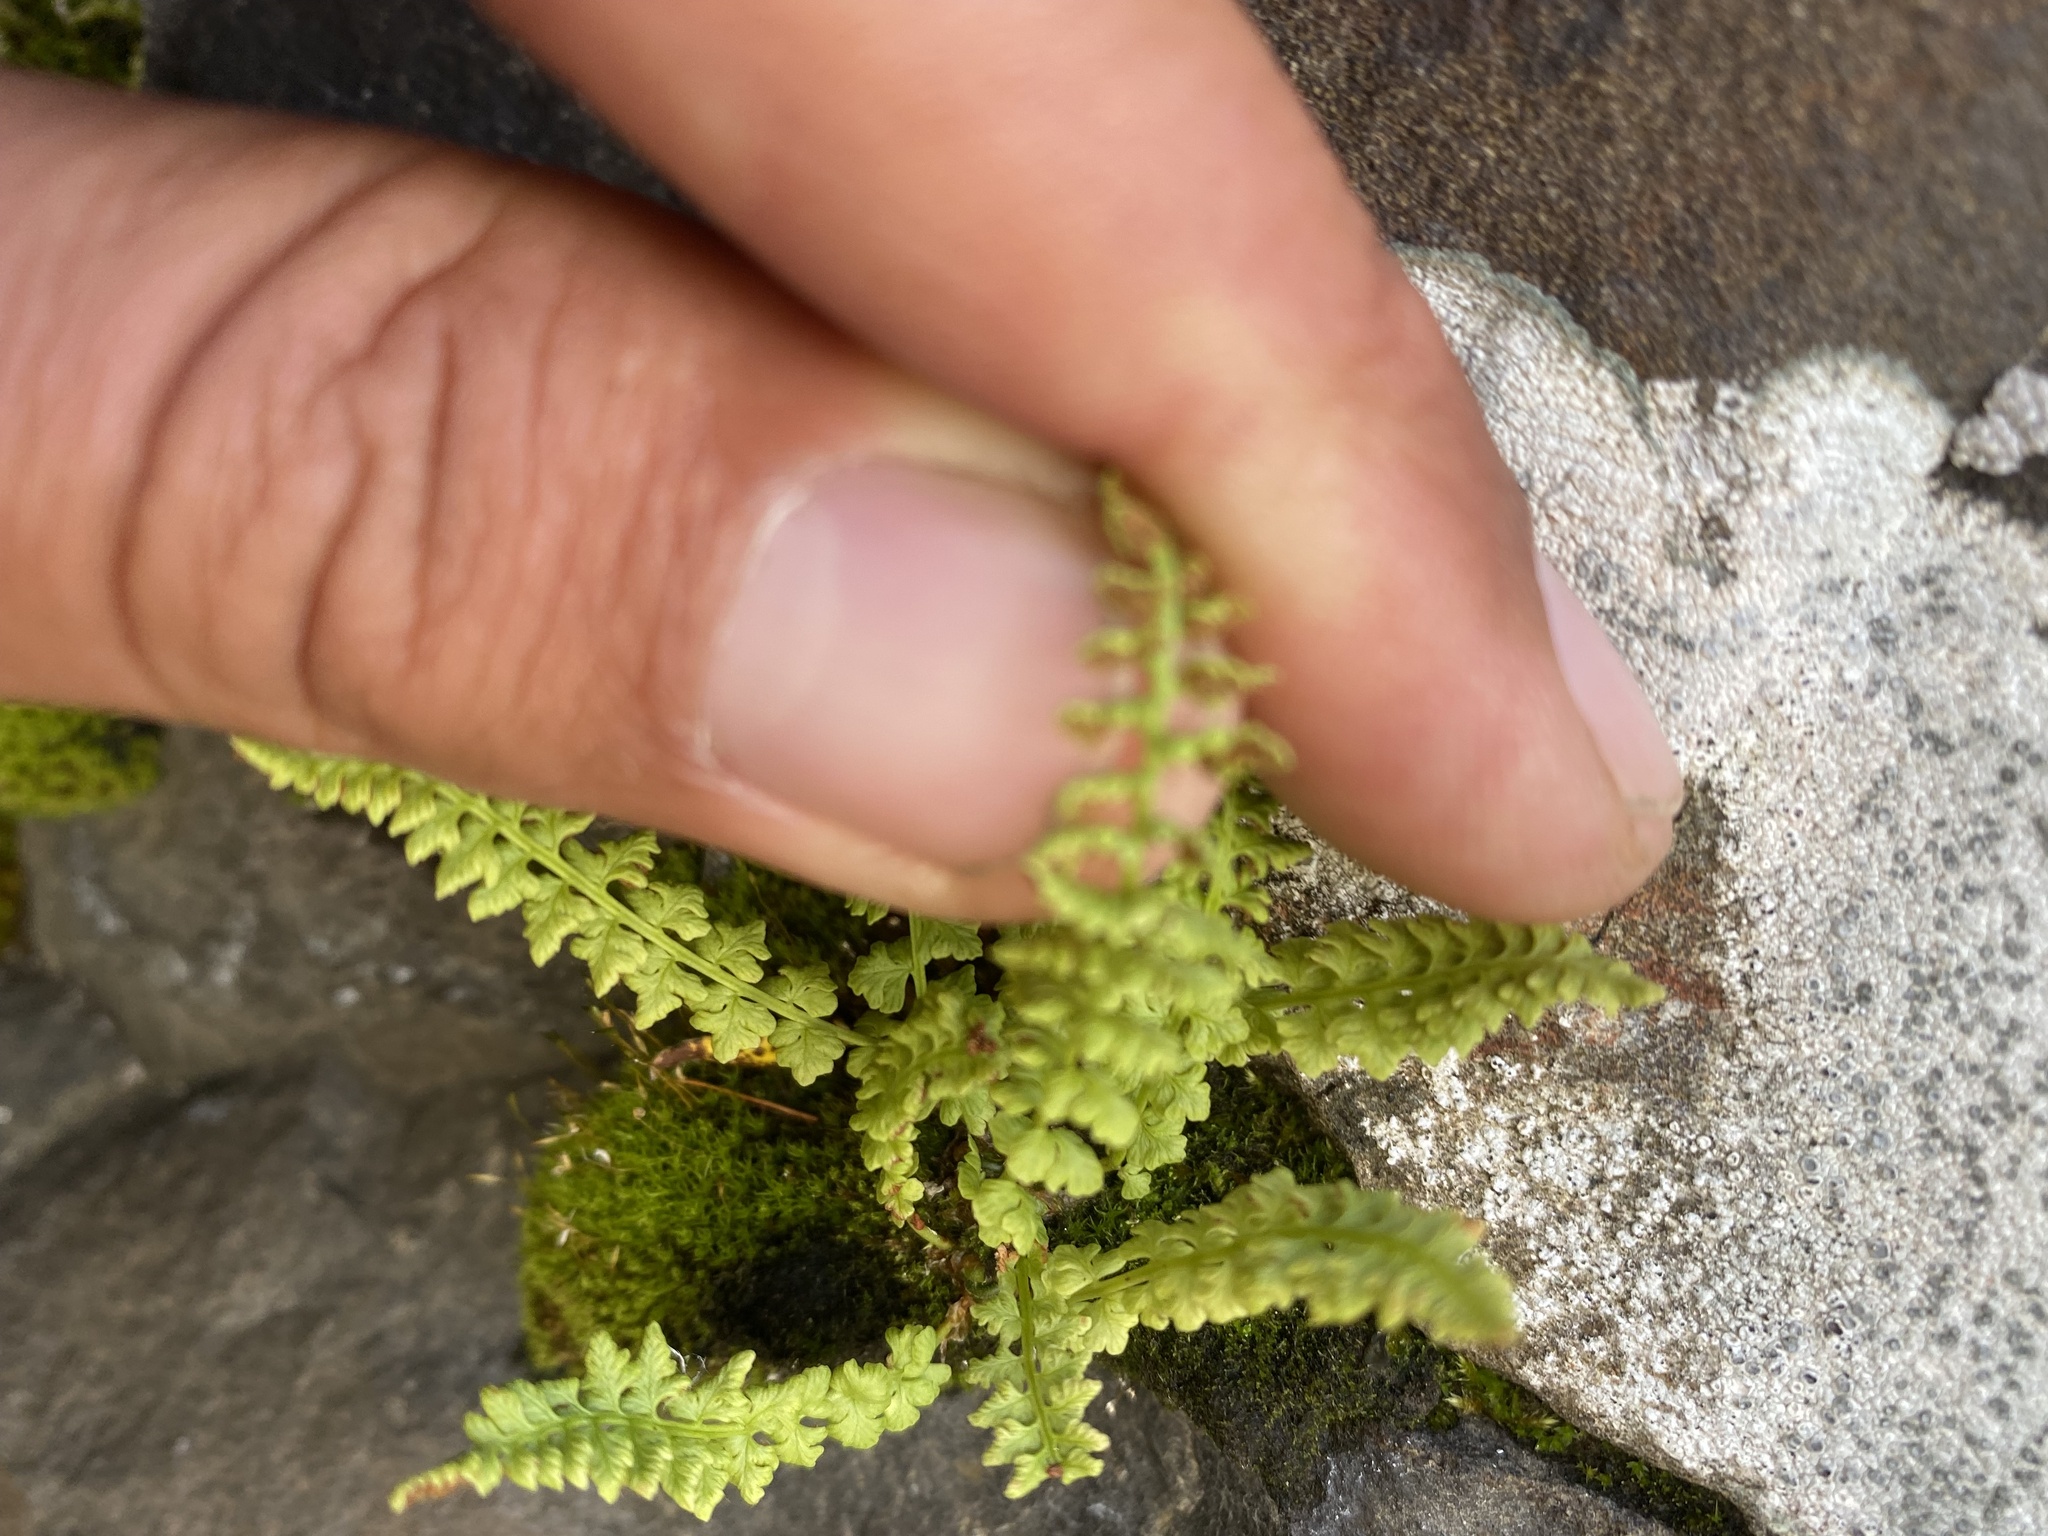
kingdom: Plantae
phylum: Tracheophyta
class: Polypodiopsida
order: Polypodiales
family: Woodsiaceae
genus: Woodsia
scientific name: Woodsia glabella
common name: Smooth woodsia
